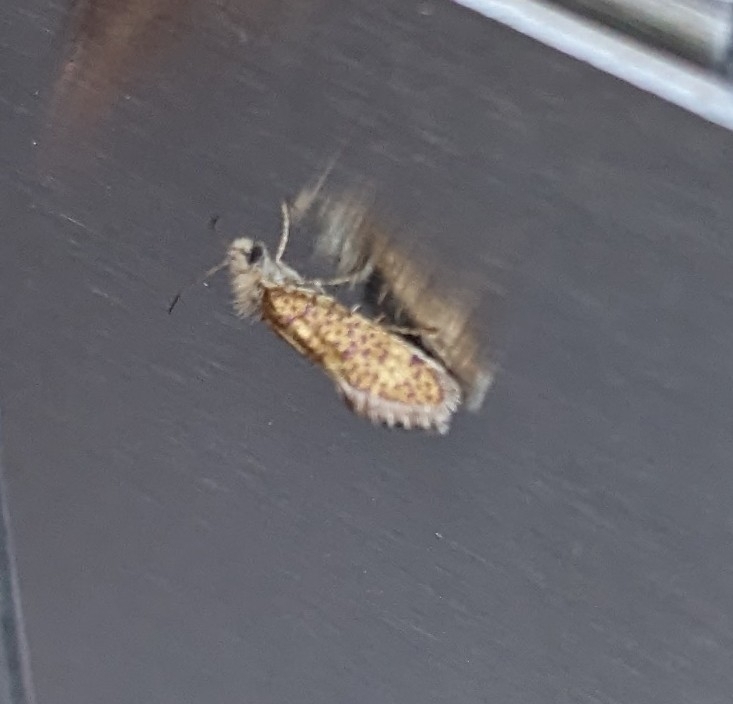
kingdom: Animalia
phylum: Arthropoda
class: Insecta
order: Lepidoptera
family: Eriocraniidae
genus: Dyseriocrania
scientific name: Dyseriocrania subpurpurella
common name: Common oak purple
